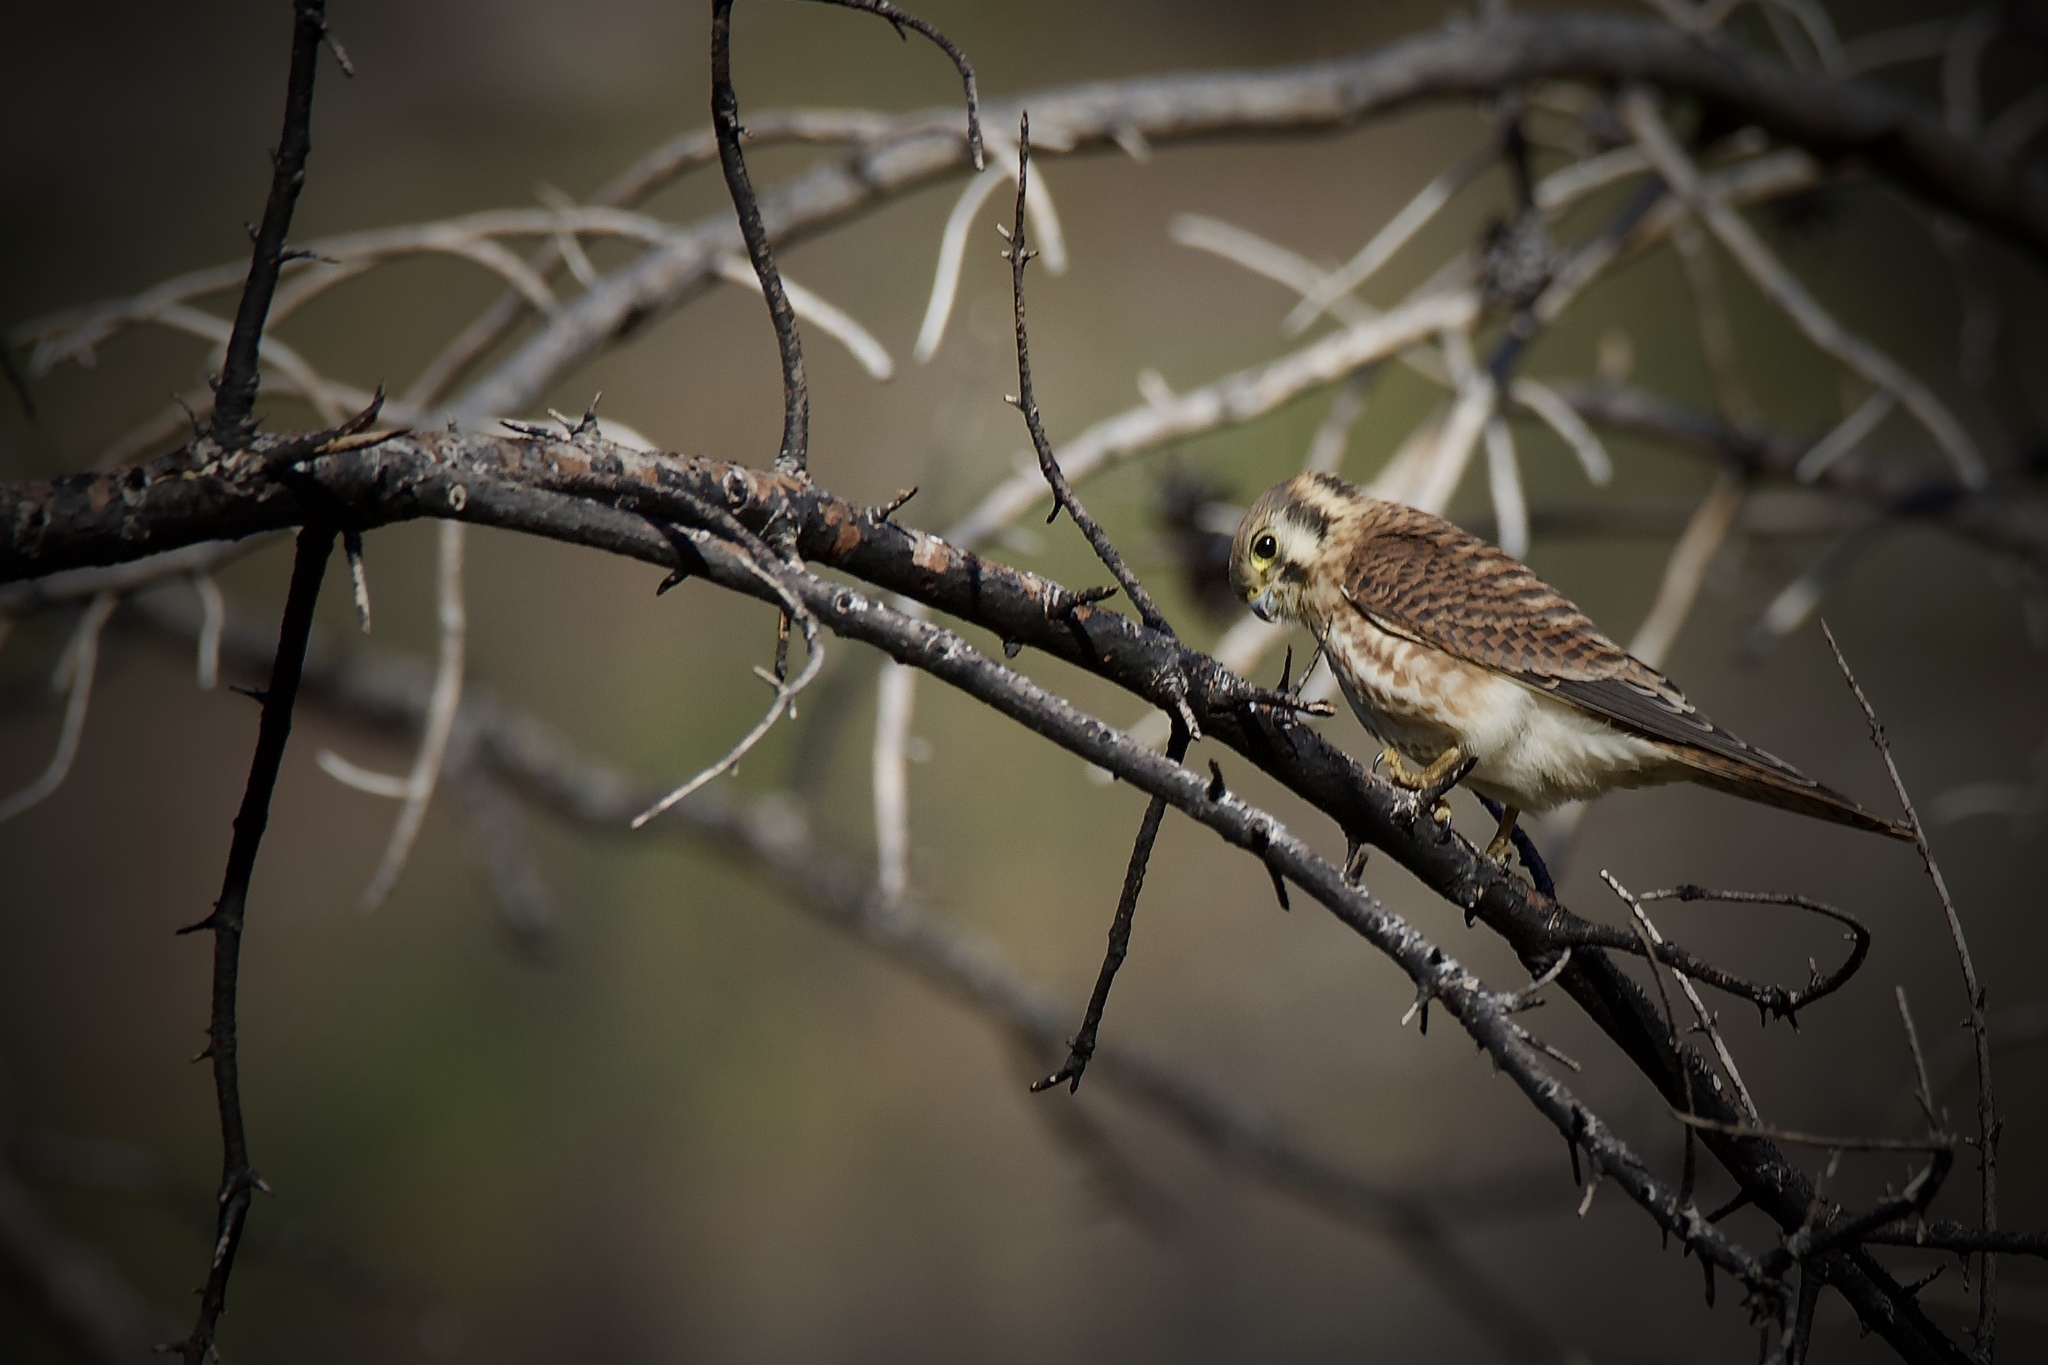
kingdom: Animalia
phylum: Chordata
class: Aves
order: Falconiformes
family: Falconidae
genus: Falco
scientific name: Falco sparverius
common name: American kestrel
